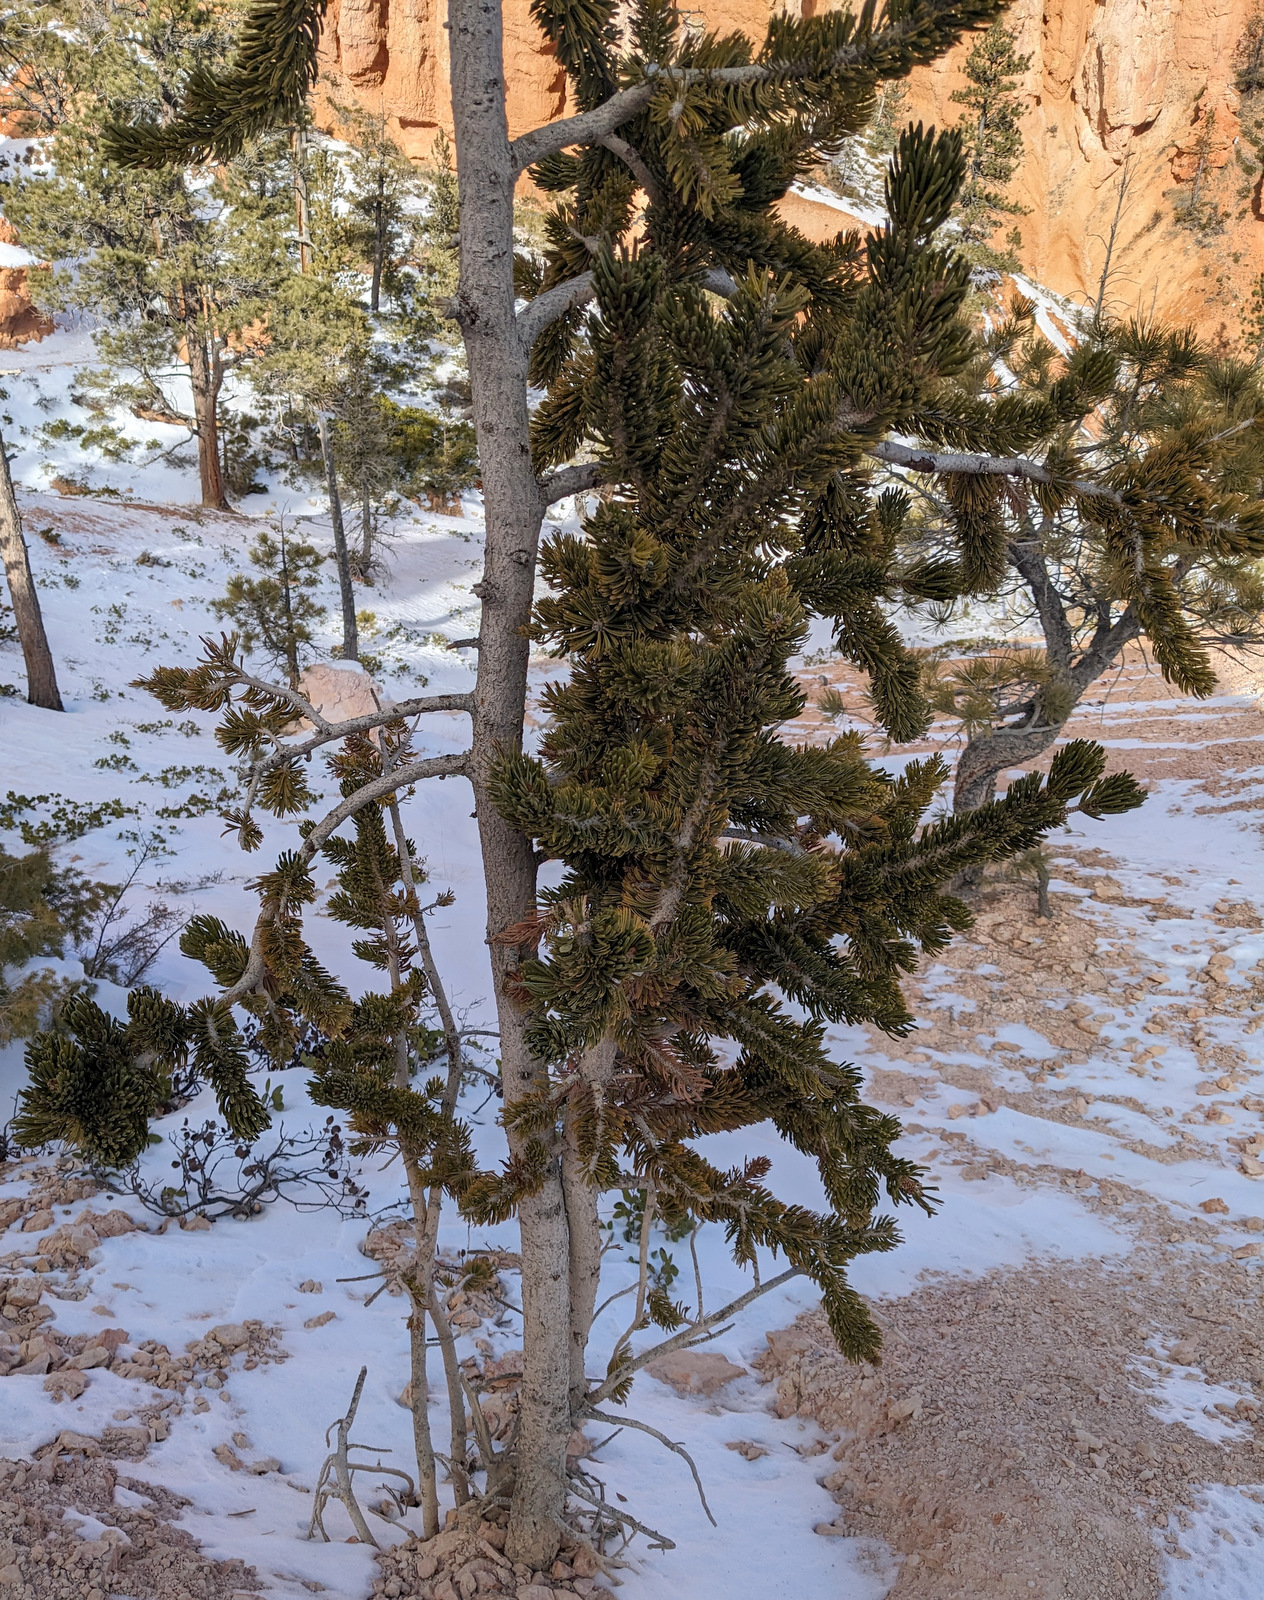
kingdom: Plantae
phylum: Tracheophyta
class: Pinopsida
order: Pinales
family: Pinaceae
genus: Pinus
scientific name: Pinus longaeva
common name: Intermountain bristlecone pine
